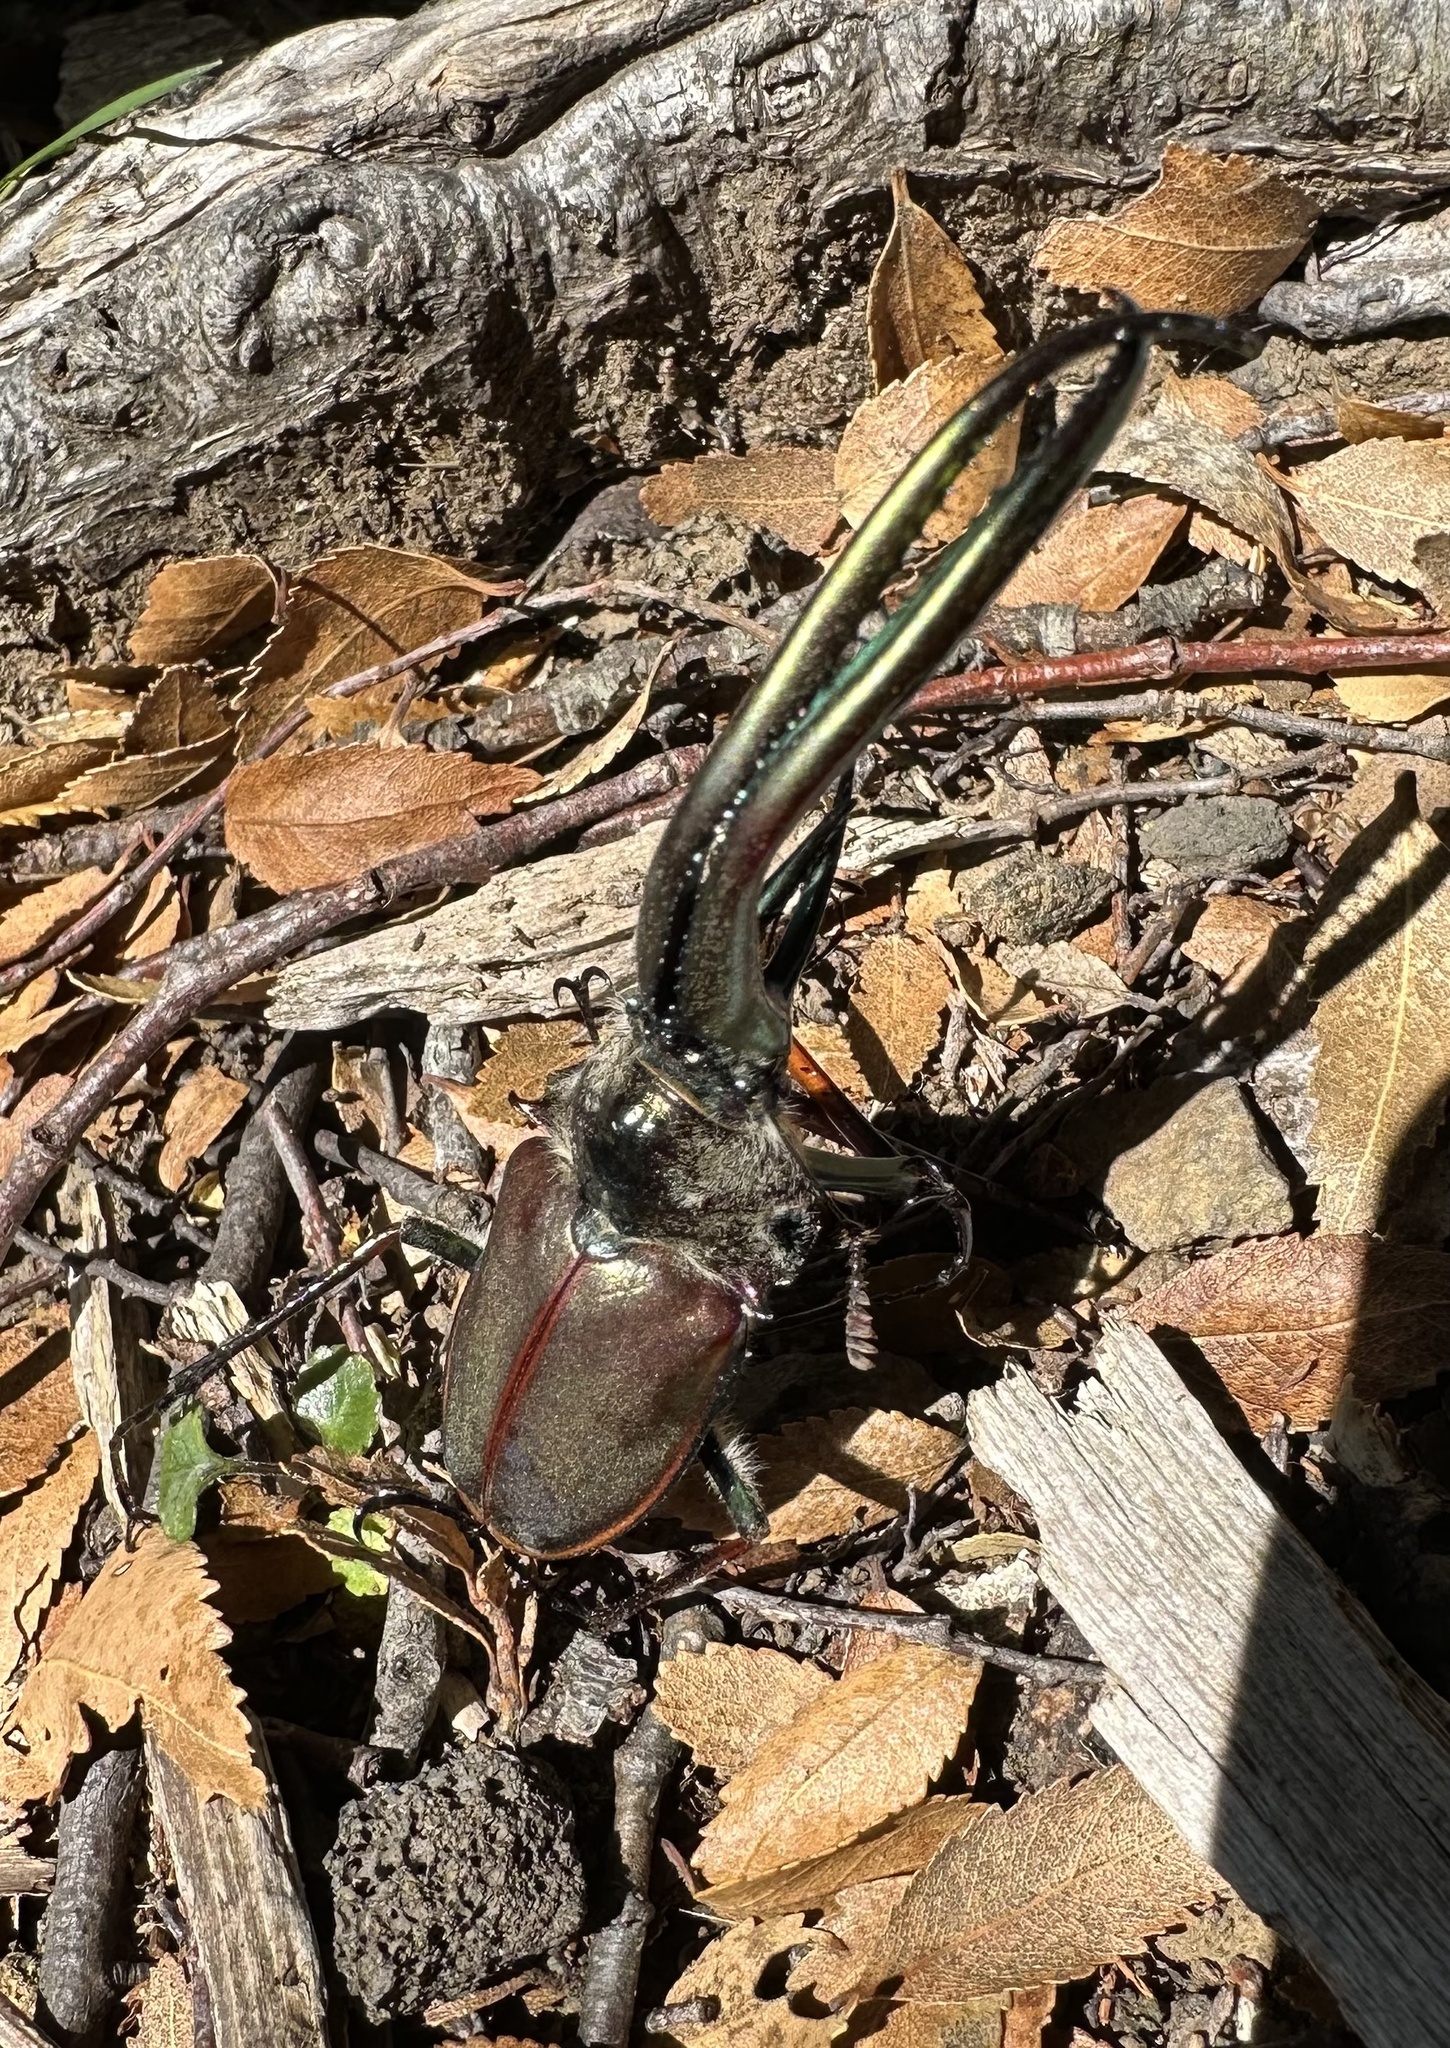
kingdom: Animalia
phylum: Arthropoda
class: Insecta
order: Coleoptera
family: Lucanidae
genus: Chiasognathus
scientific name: Chiasognathus grantii
